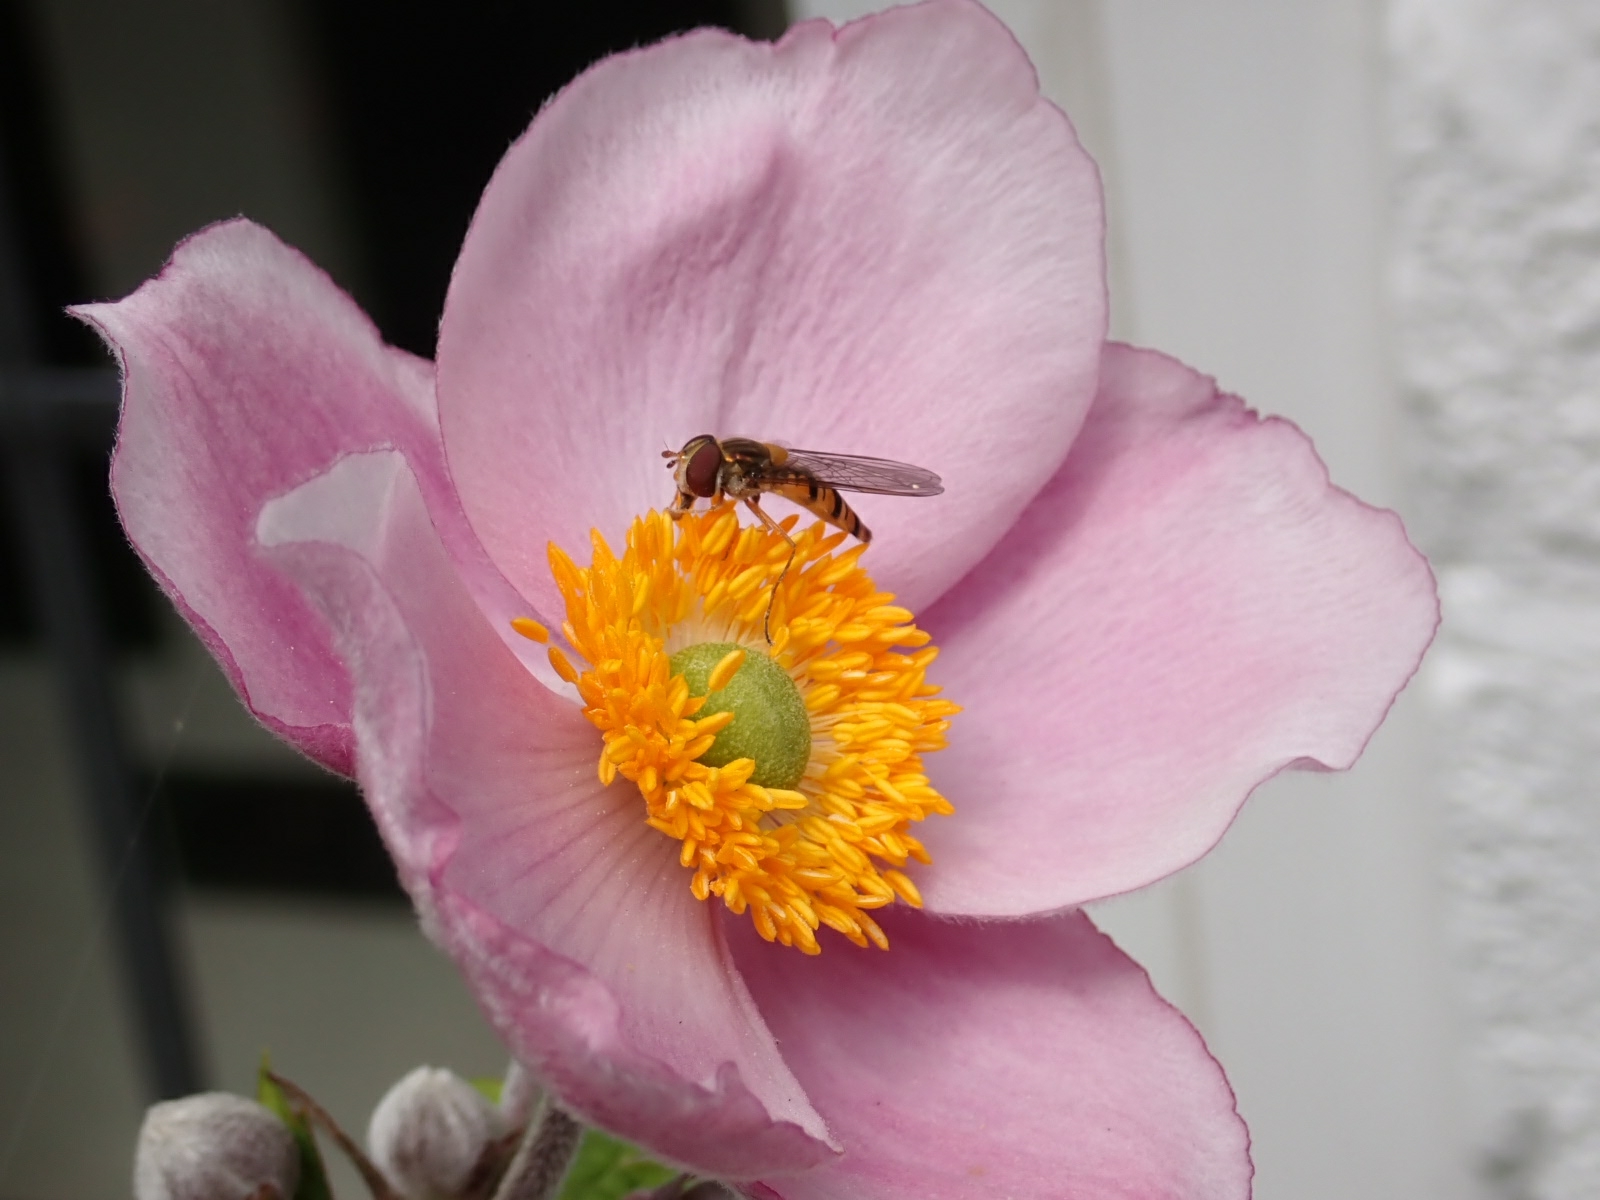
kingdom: Animalia
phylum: Arthropoda
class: Insecta
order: Diptera
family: Syrphidae
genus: Episyrphus
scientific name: Episyrphus balteatus
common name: Marmalade hoverfly
